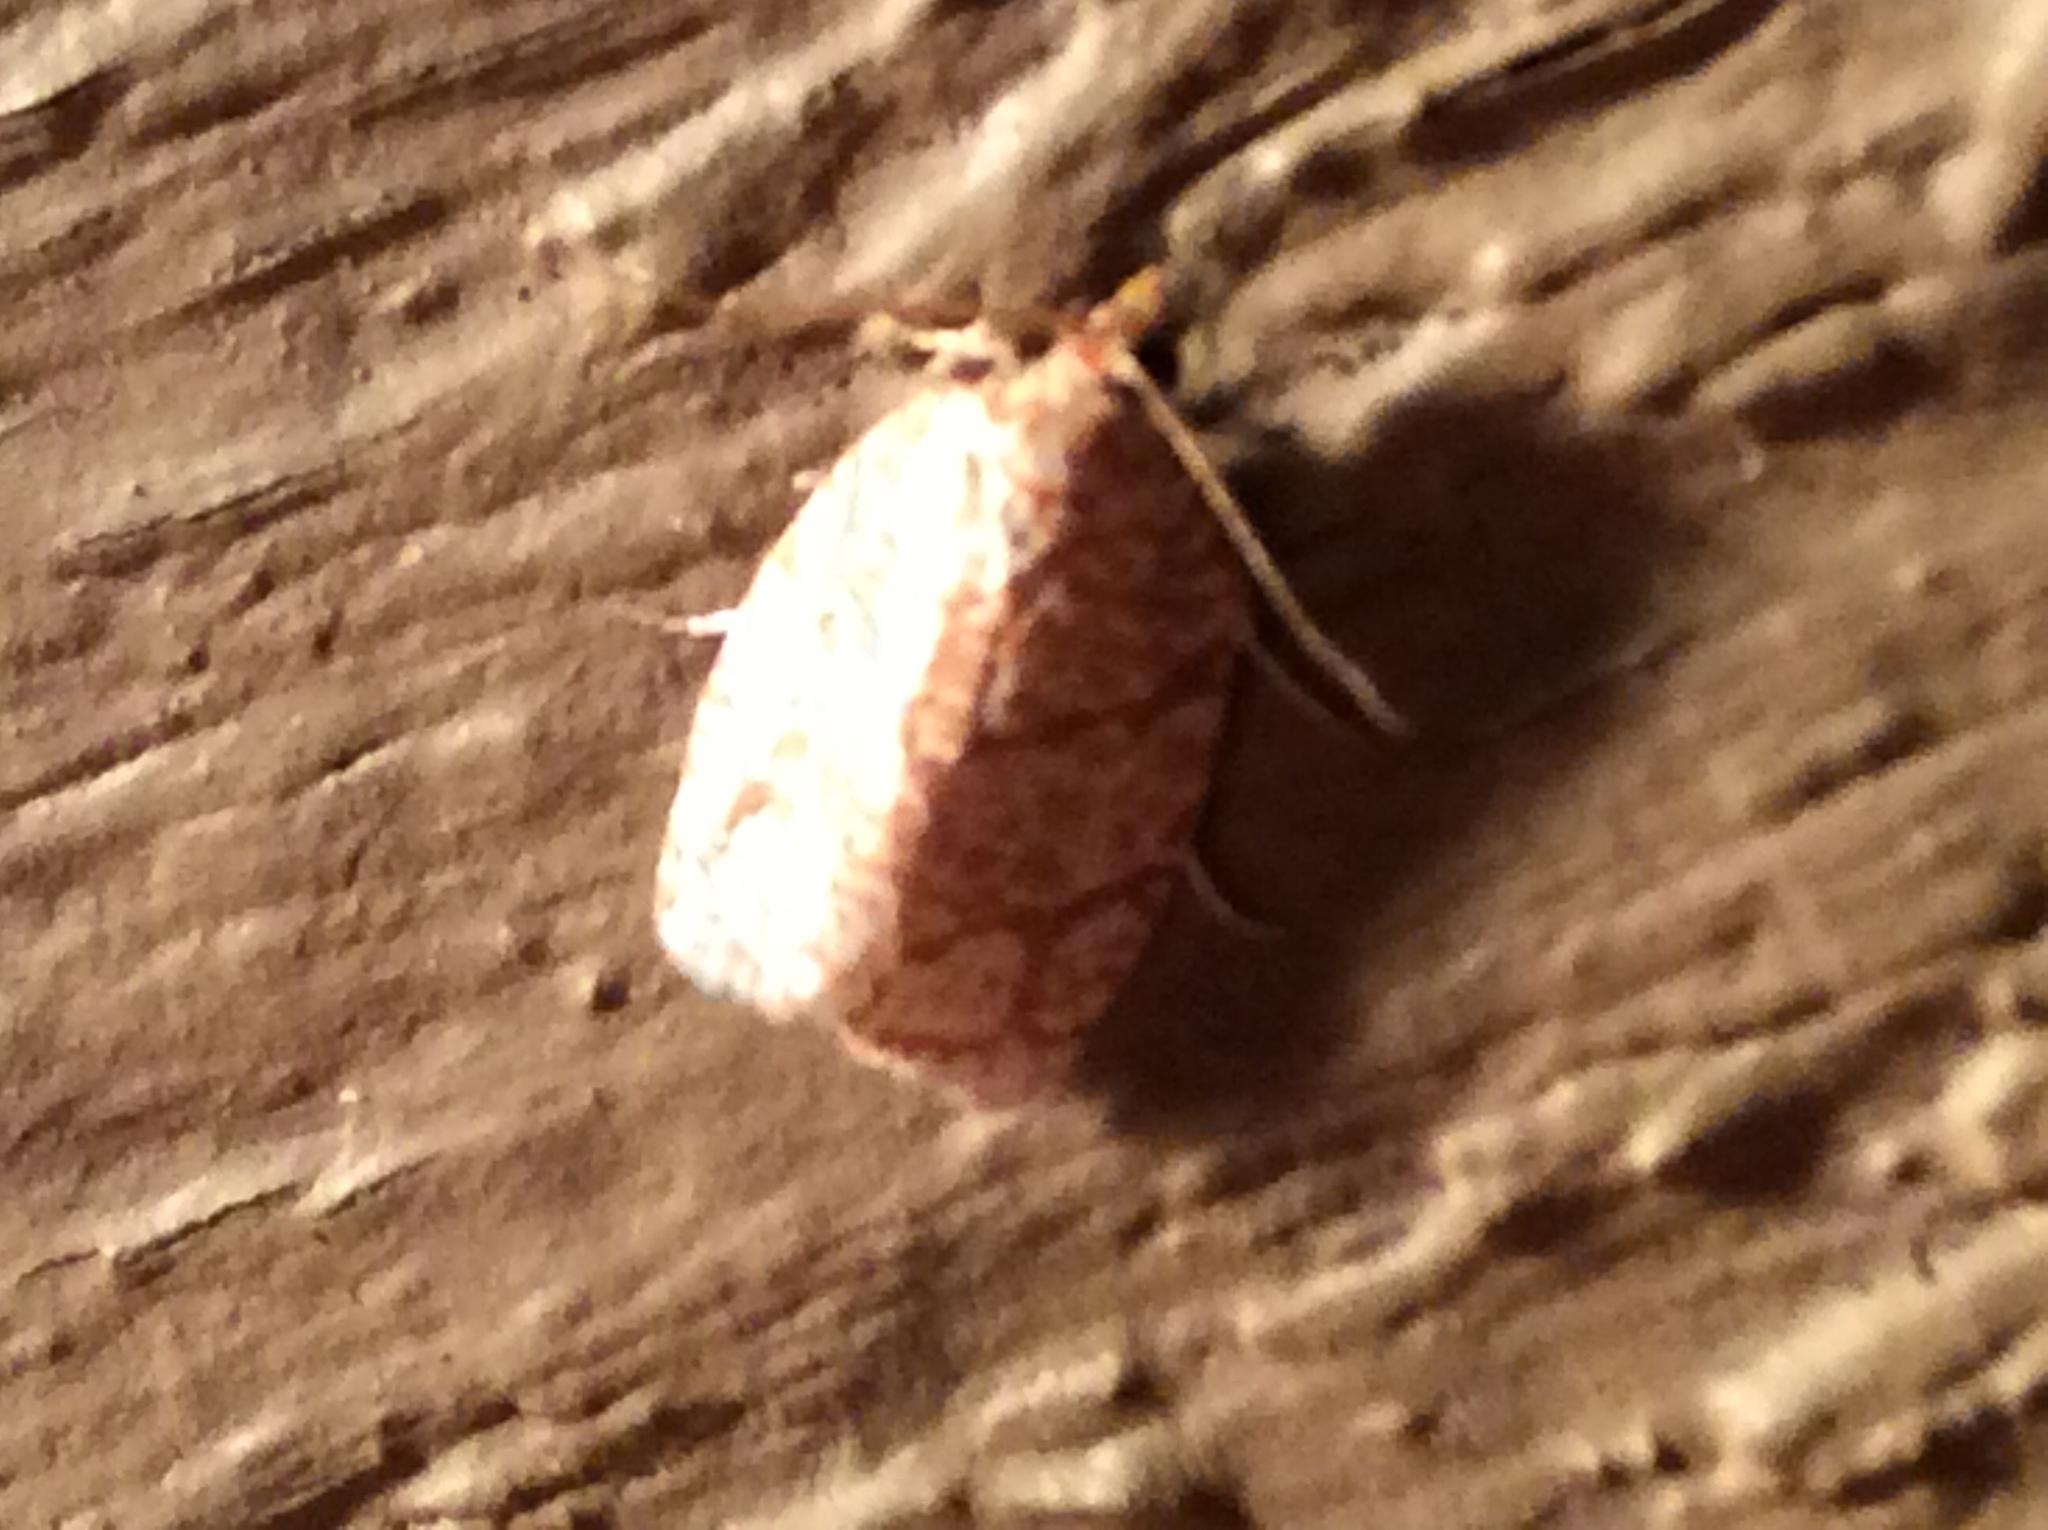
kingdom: Animalia
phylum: Arthropoda
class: Insecta
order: Lepidoptera
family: Tortricidae
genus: Argyrotaenia
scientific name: Argyrotaenia quercifoliana
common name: Yellow-winged oak leafroller moth
